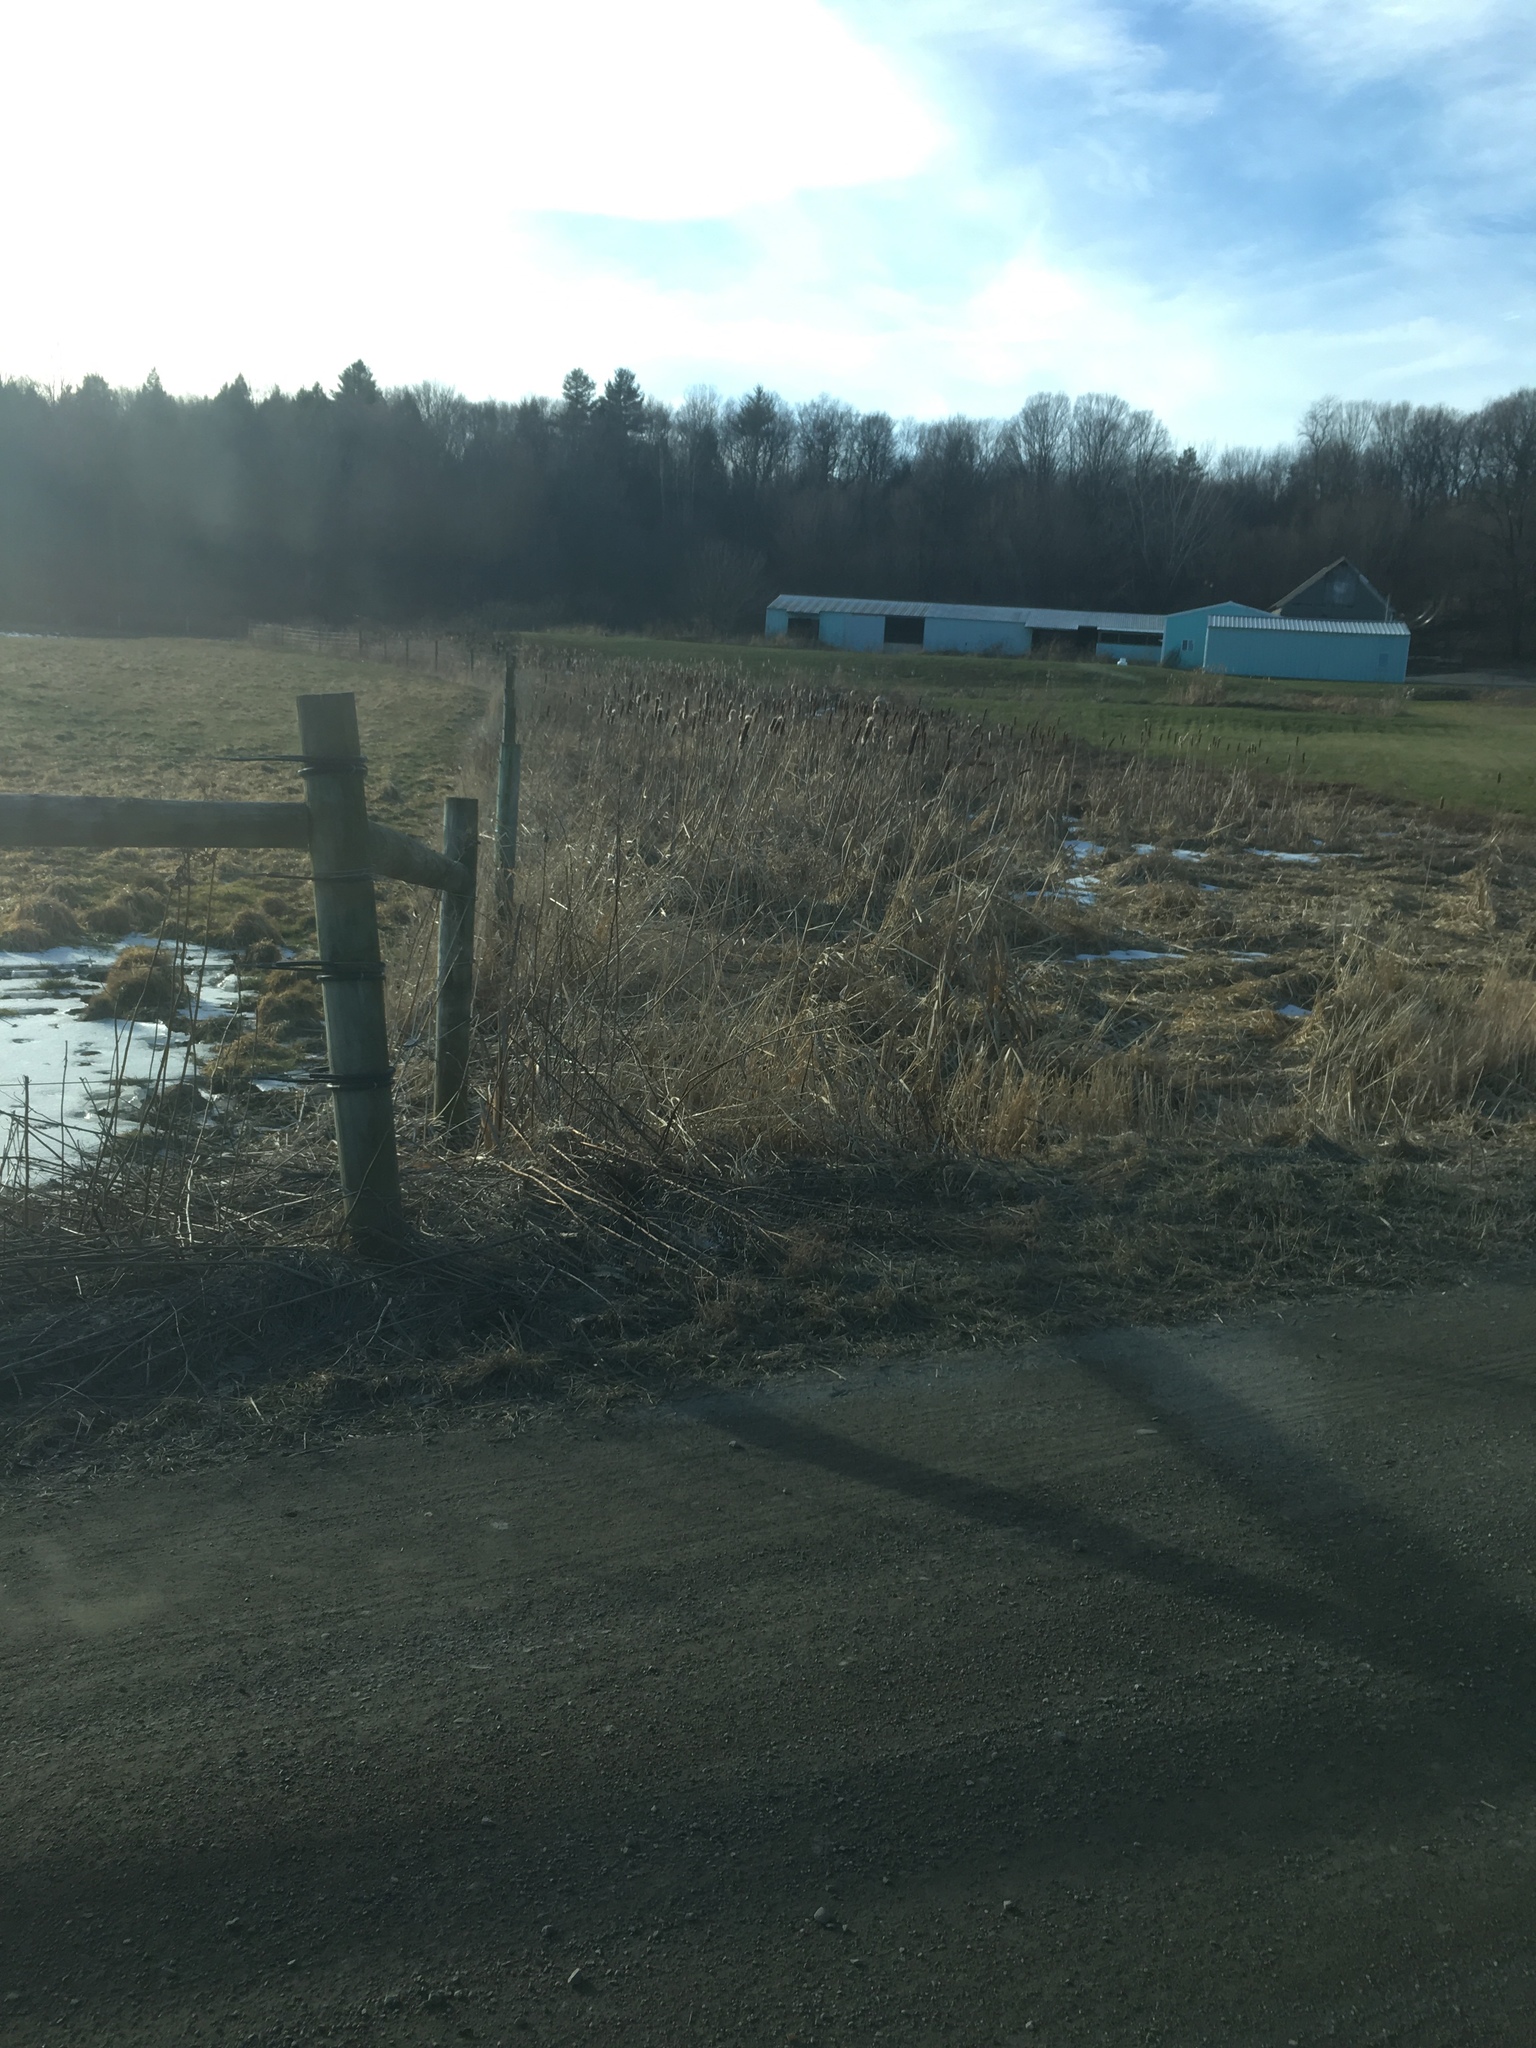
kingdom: Plantae
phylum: Tracheophyta
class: Liliopsida
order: Poales
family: Typhaceae
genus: Typha
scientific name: Typha
